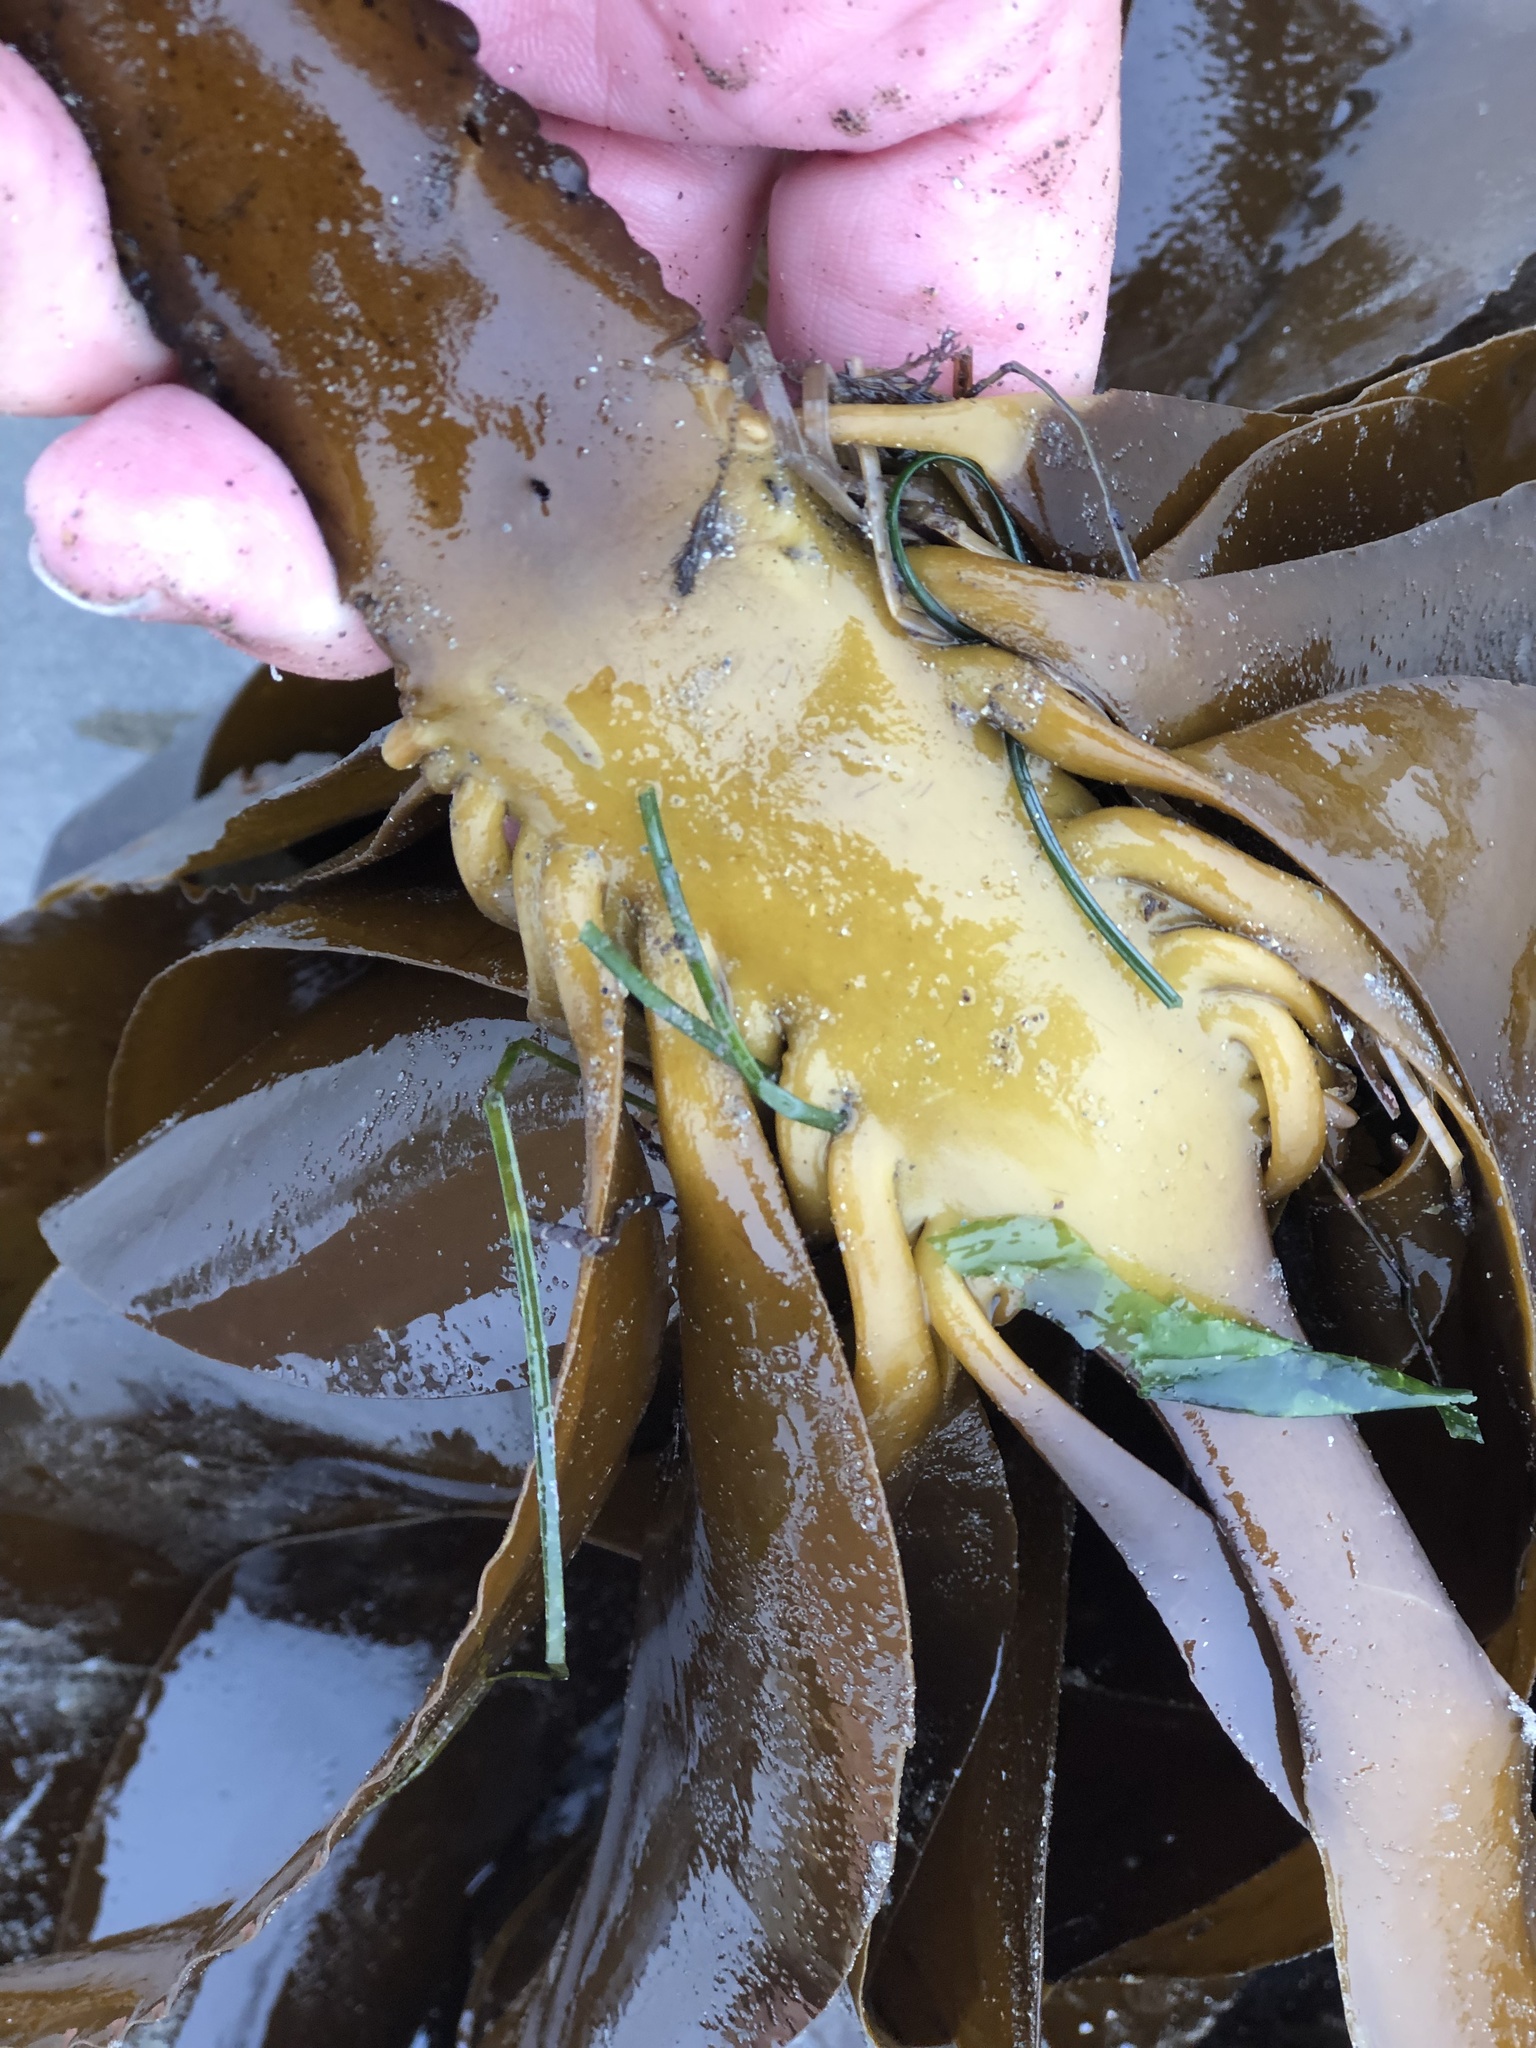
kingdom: Chromista
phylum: Ochrophyta
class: Phaeophyceae
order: Laminariales
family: Alariaceae
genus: Pterygophora
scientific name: Pterygophora californica
